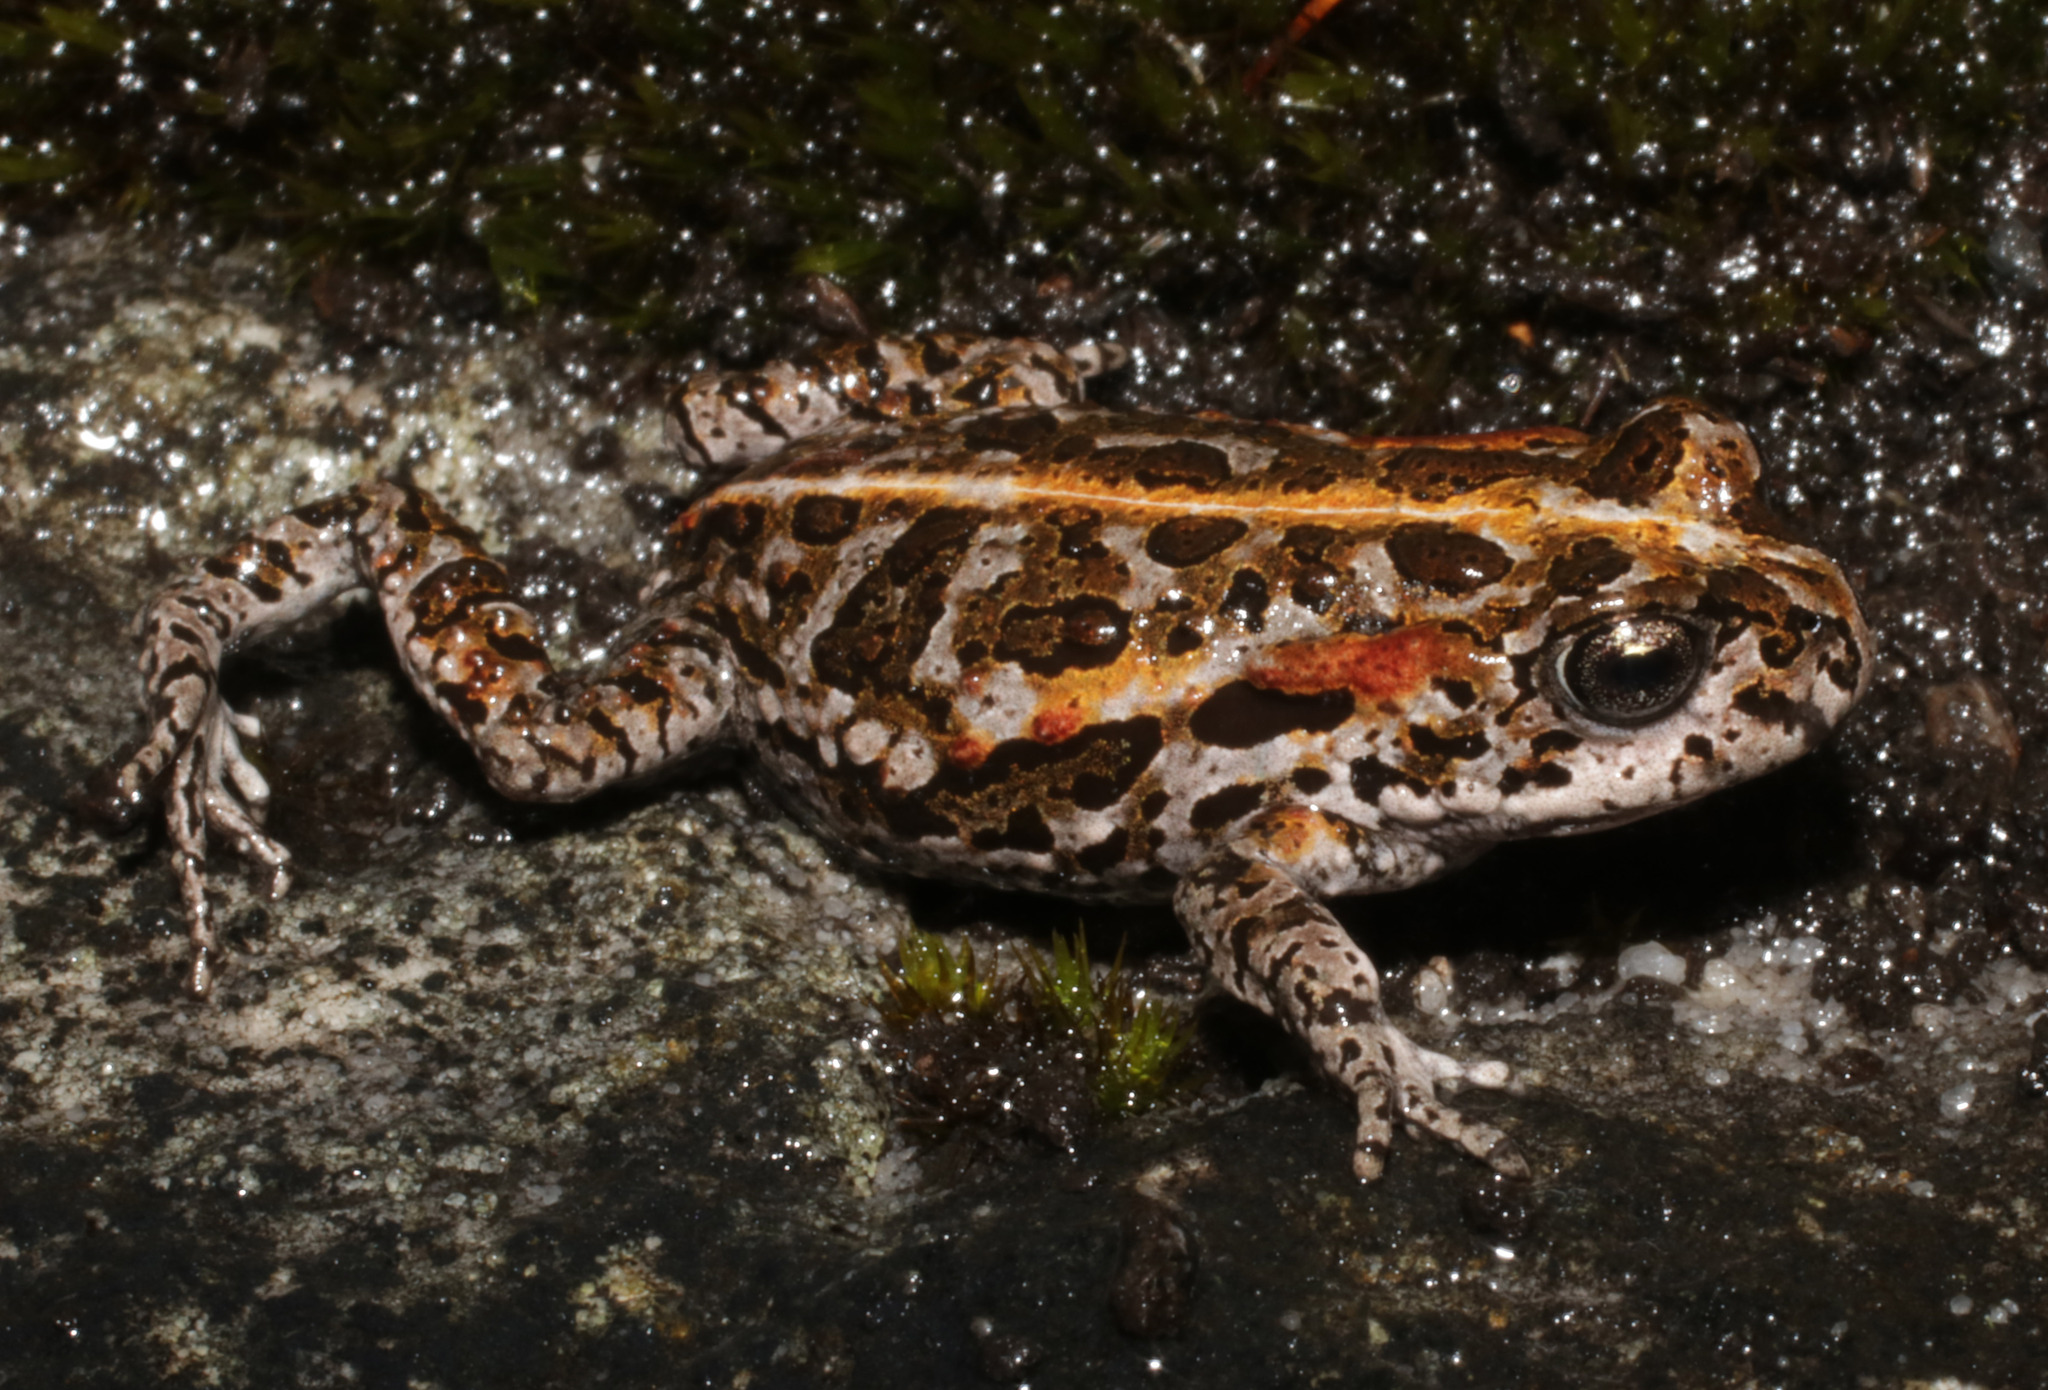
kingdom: Animalia
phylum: Chordata
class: Amphibia
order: Anura
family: Bufonidae
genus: Capensibufo
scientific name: Capensibufo magistratus
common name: Landdroskop mountain toadlet
